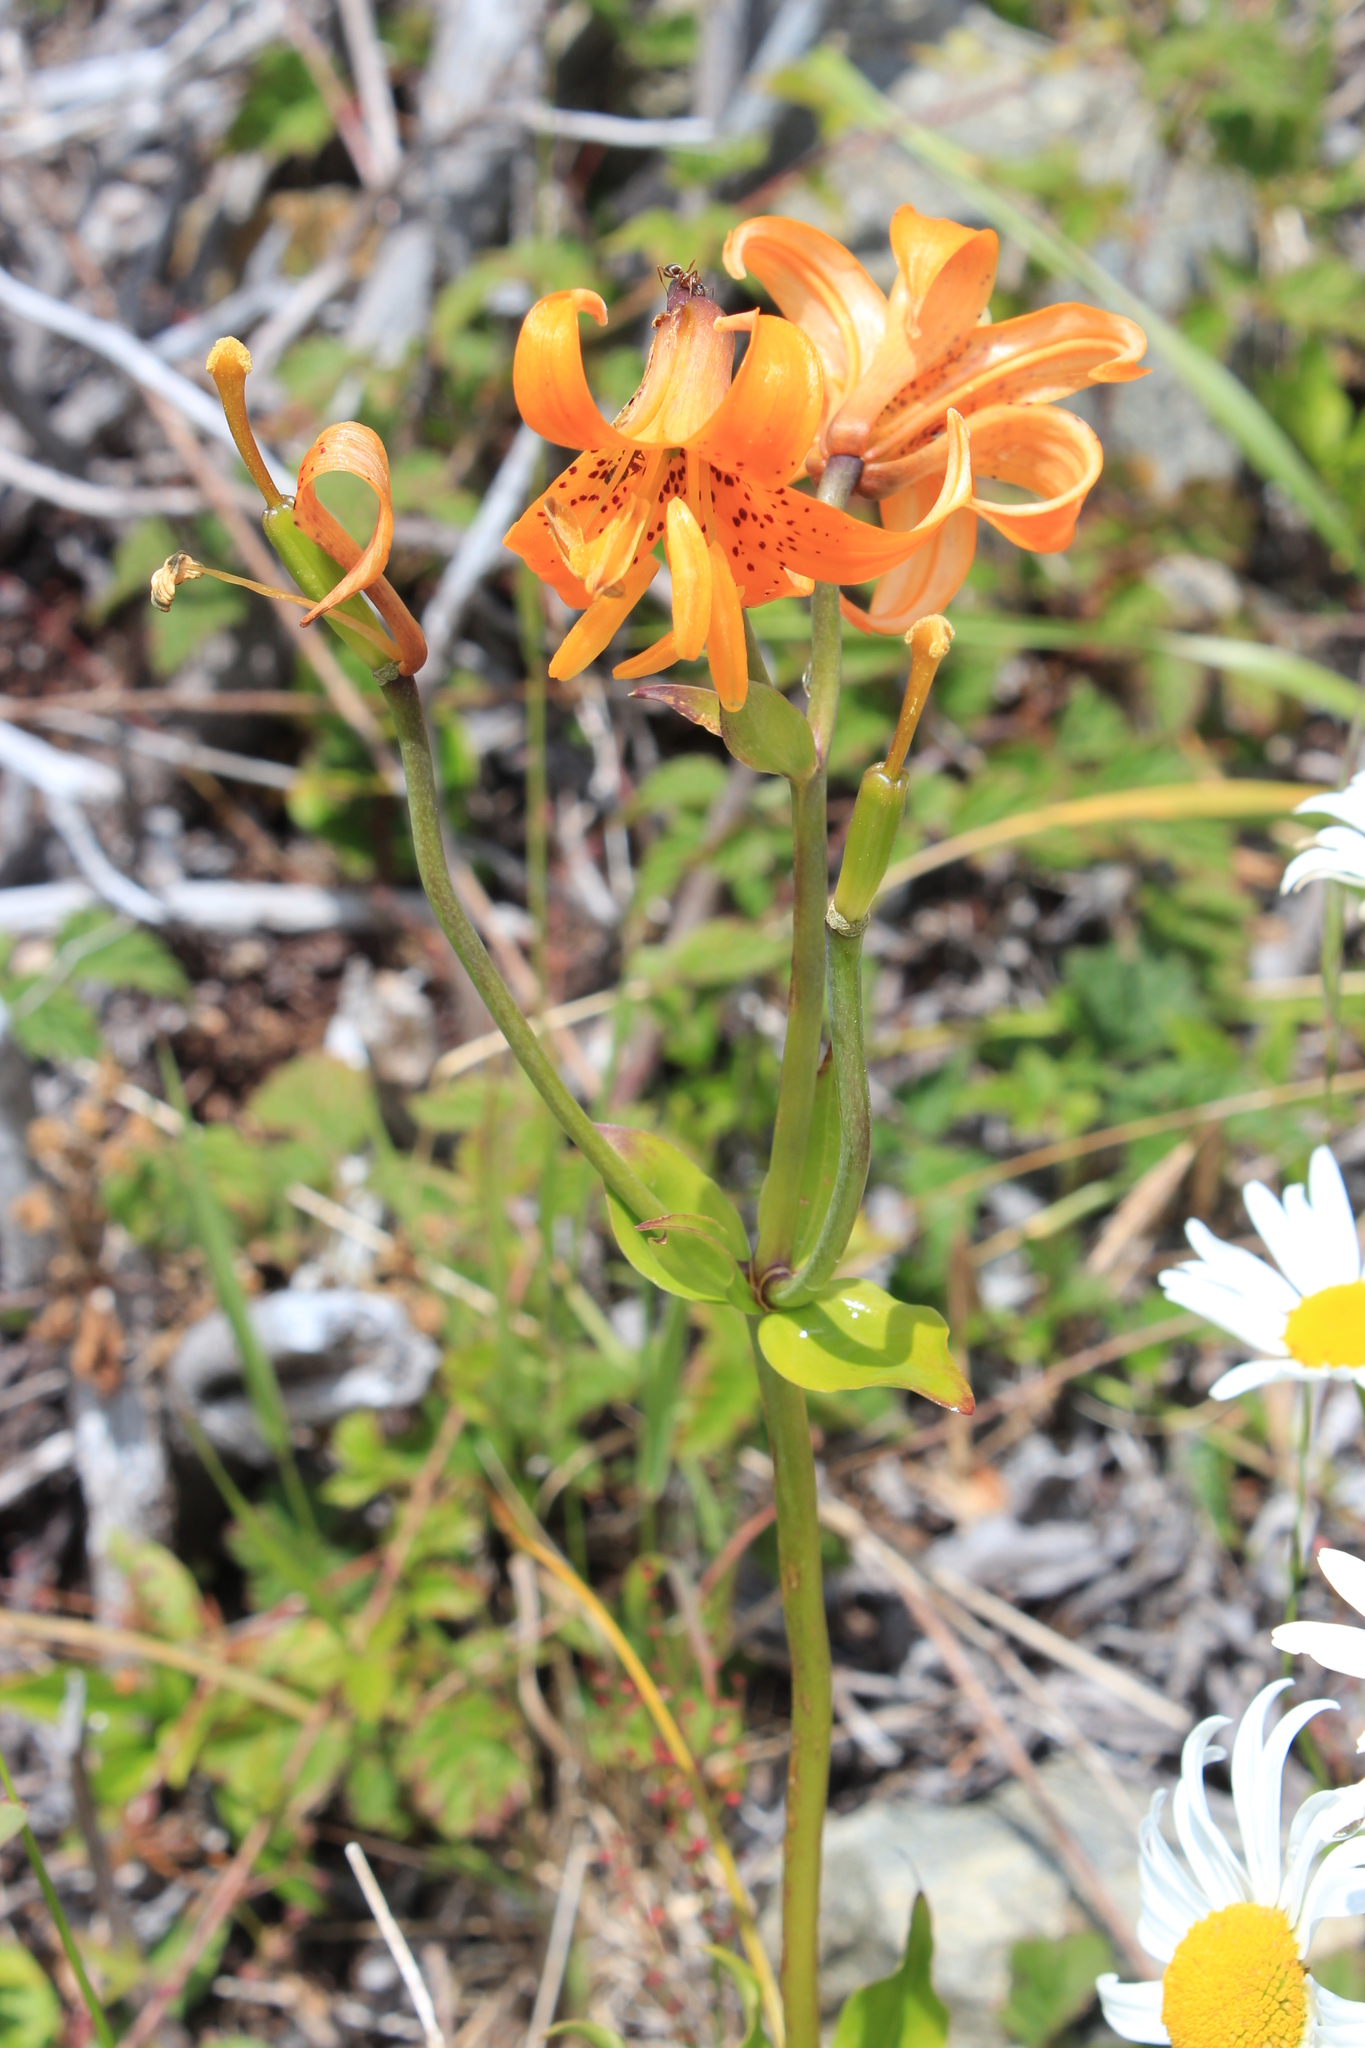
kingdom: Plantae
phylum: Tracheophyta
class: Liliopsida
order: Liliales
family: Liliaceae
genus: Lilium
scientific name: Lilium columbianum
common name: Columbia lily
